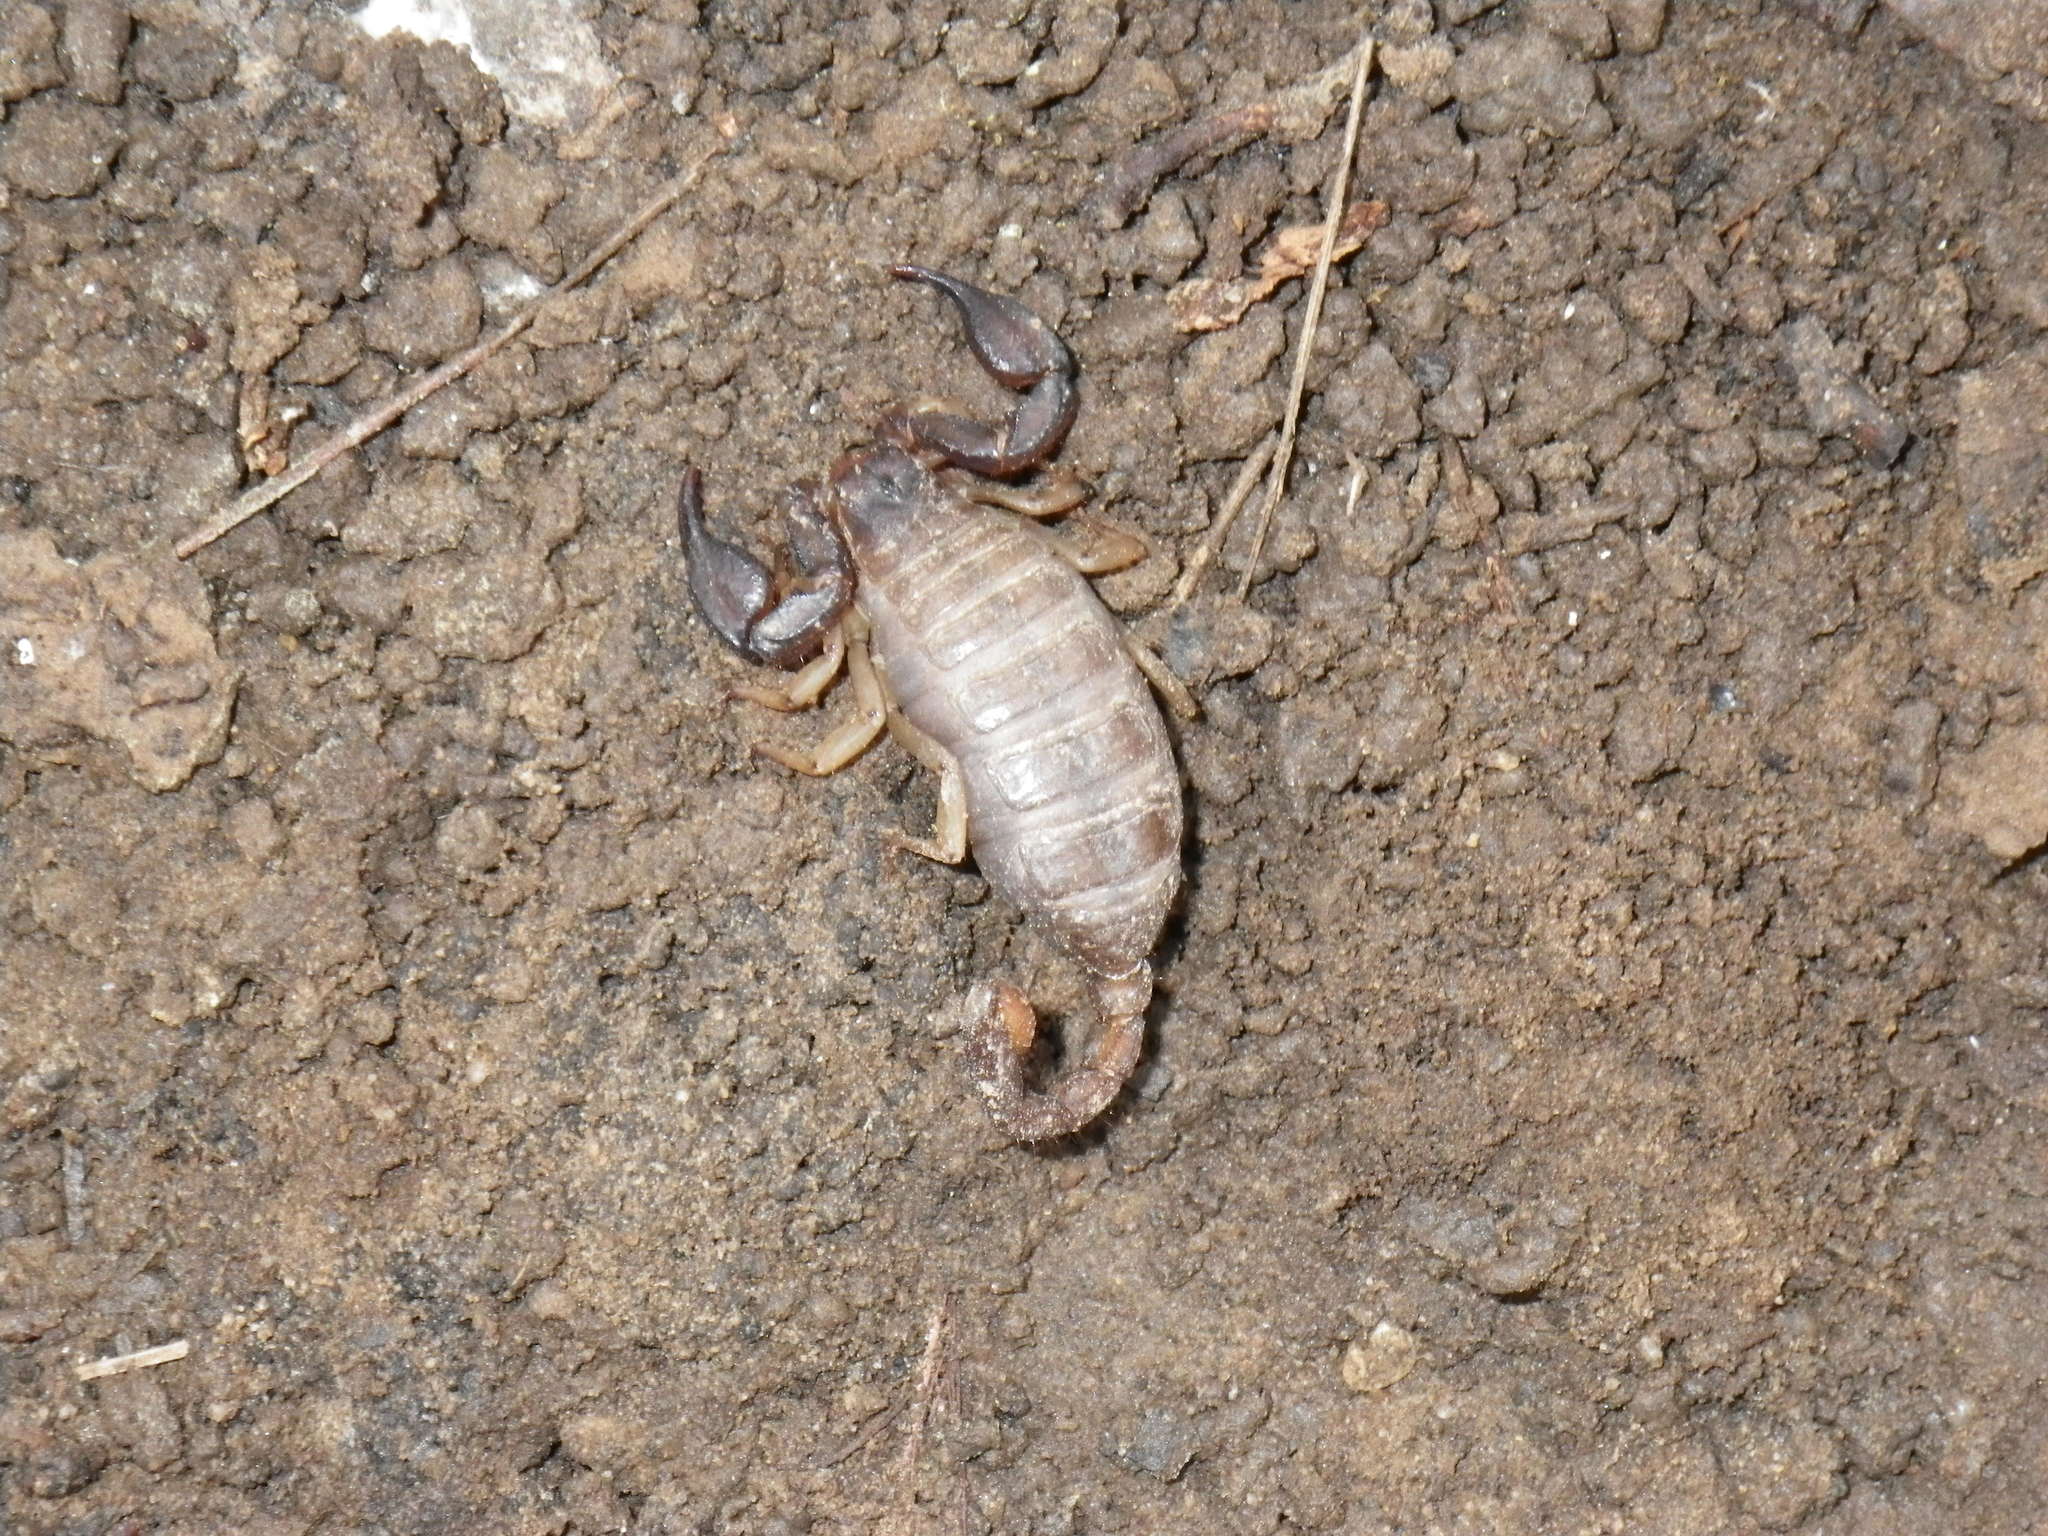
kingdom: Animalia
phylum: Arthropoda
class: Arachnida
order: Scorpiones
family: Chactidae
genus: Uroctonus
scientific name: Uroctonus mordax
